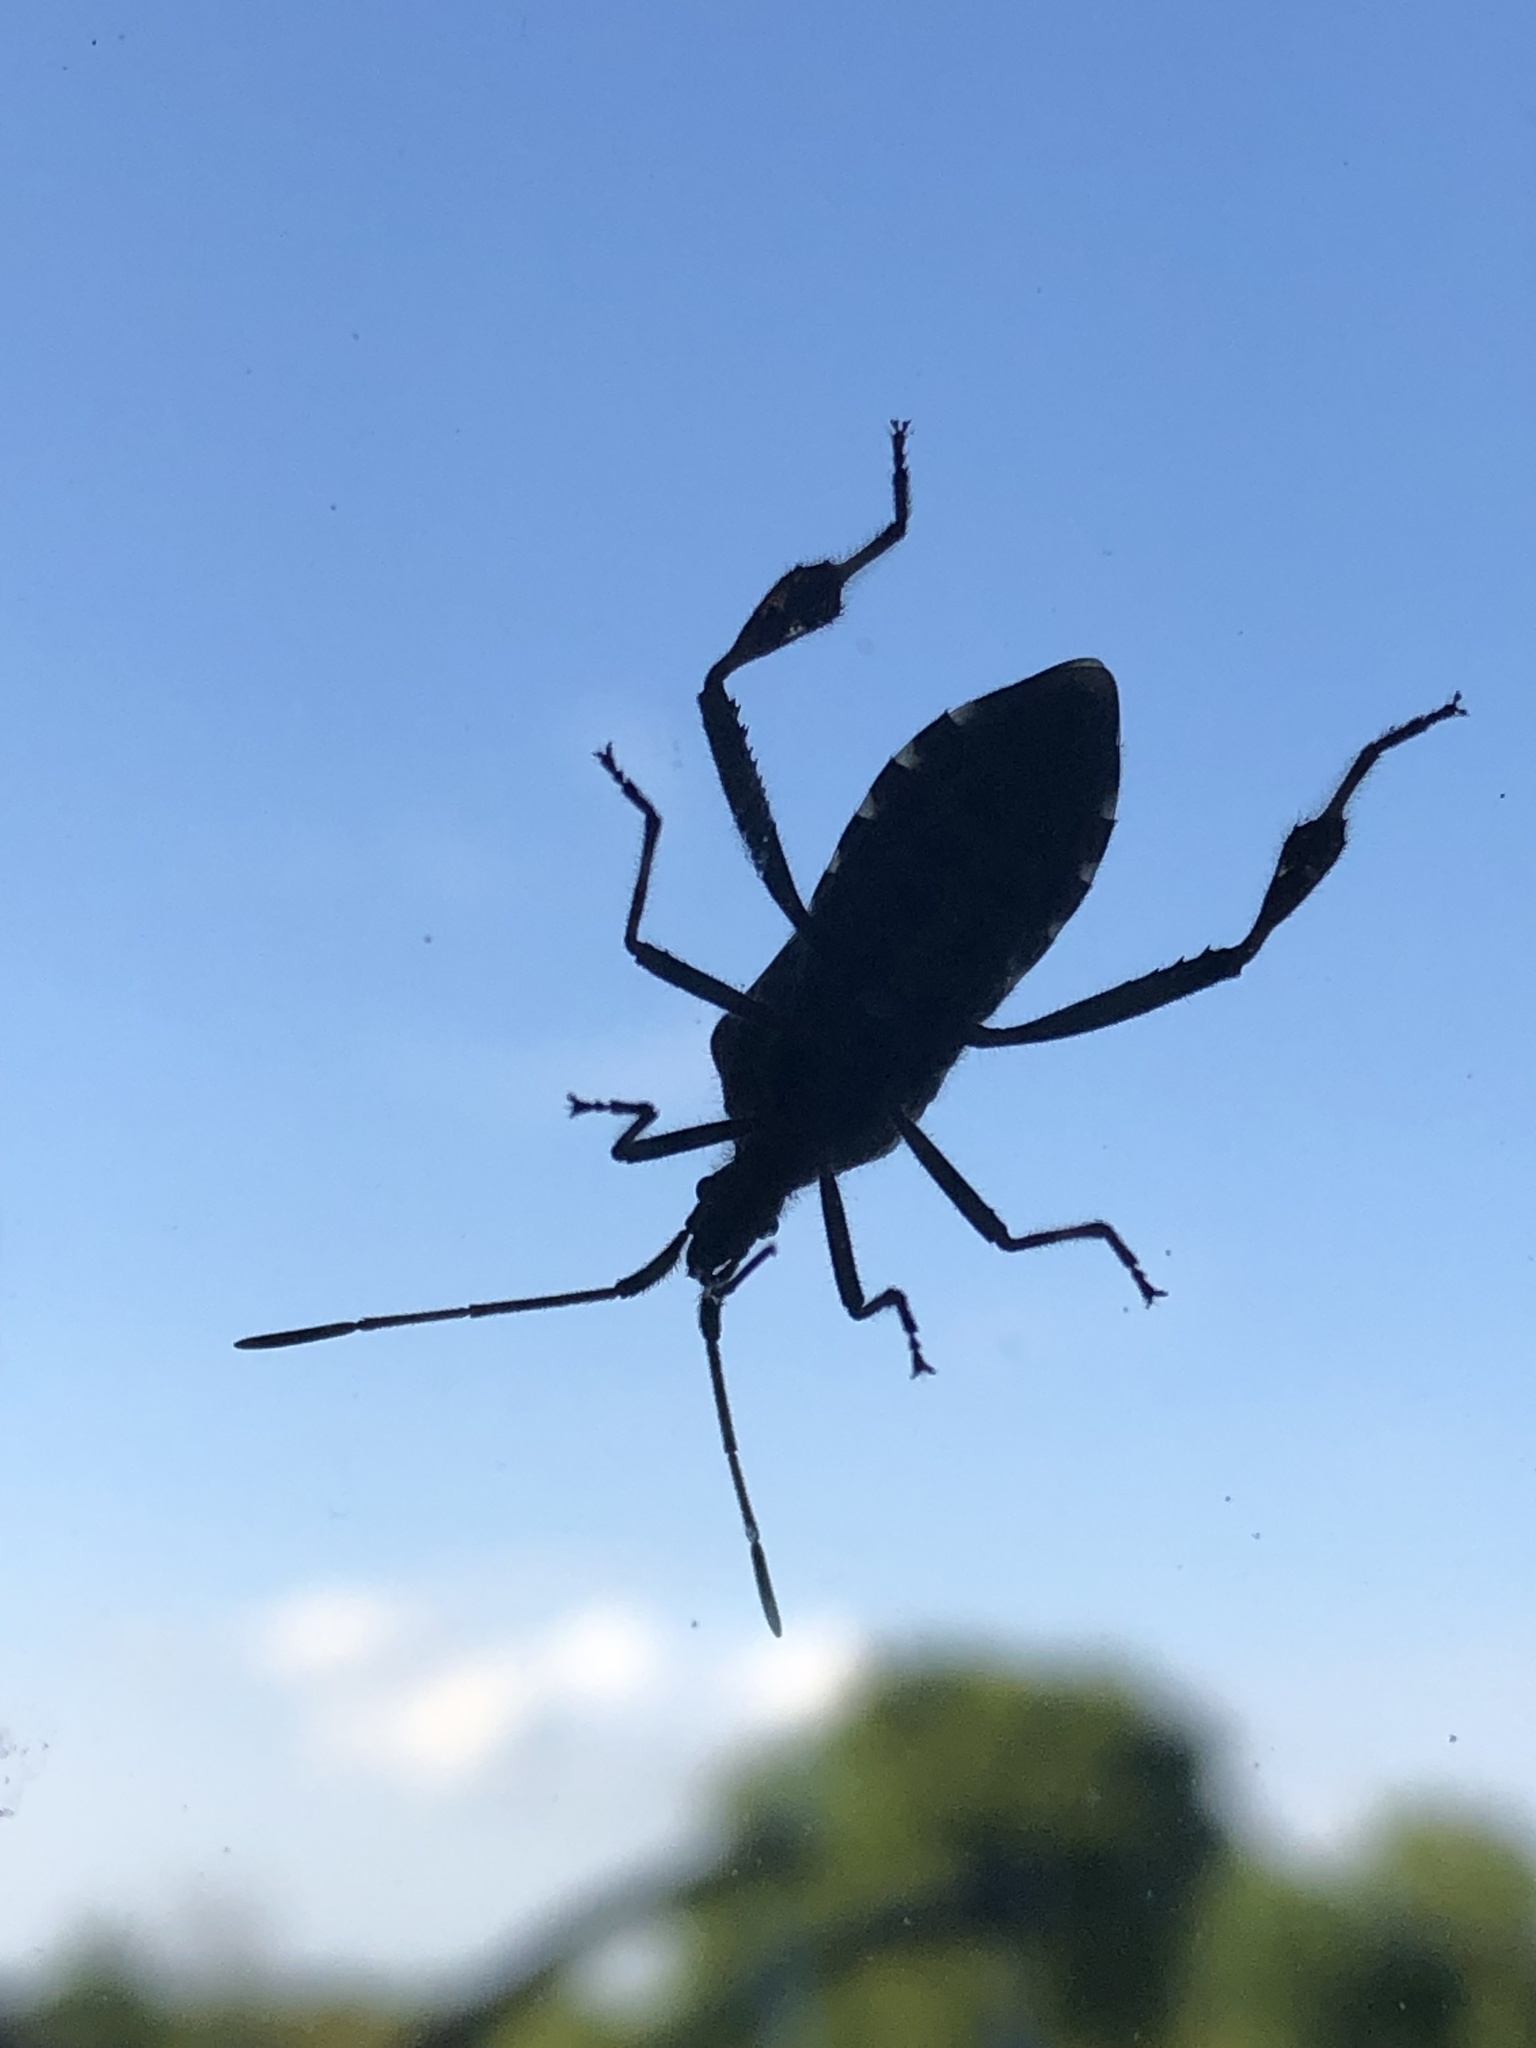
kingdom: Animalia
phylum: Arthropoda
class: Insecta
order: Hemiptera
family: Coreidae
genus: Leptoglossus
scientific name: Leptoglossus occidentalis
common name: Western conifer-seed bug
